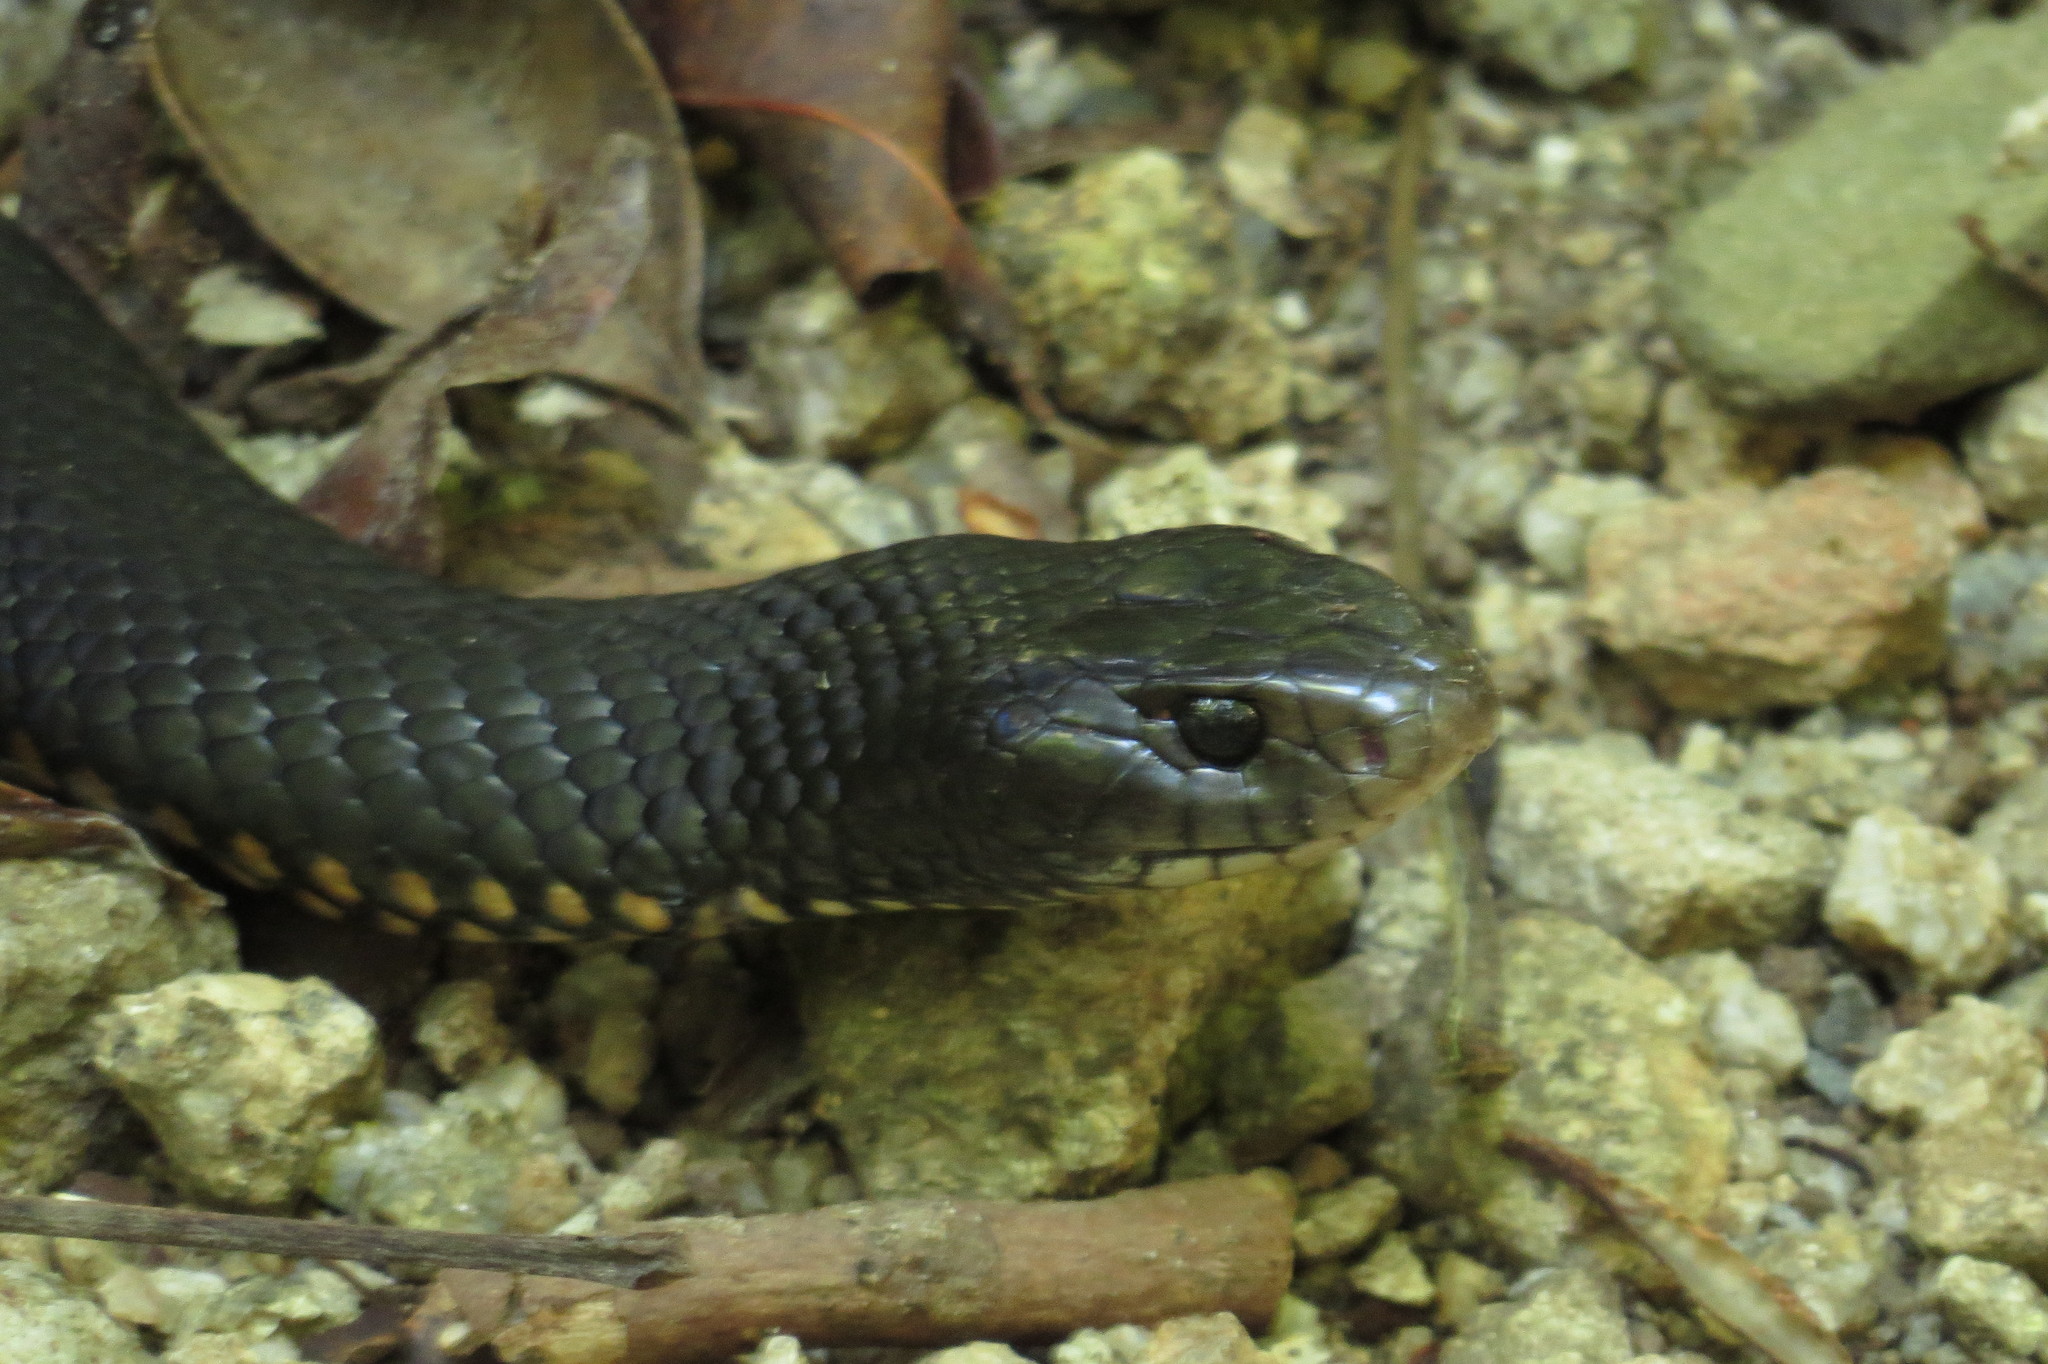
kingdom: Animalia
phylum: Chordata
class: Squamata
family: Elapidae
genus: Pseudechis
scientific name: Pseudechis porphyriacus
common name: Australian black snake
